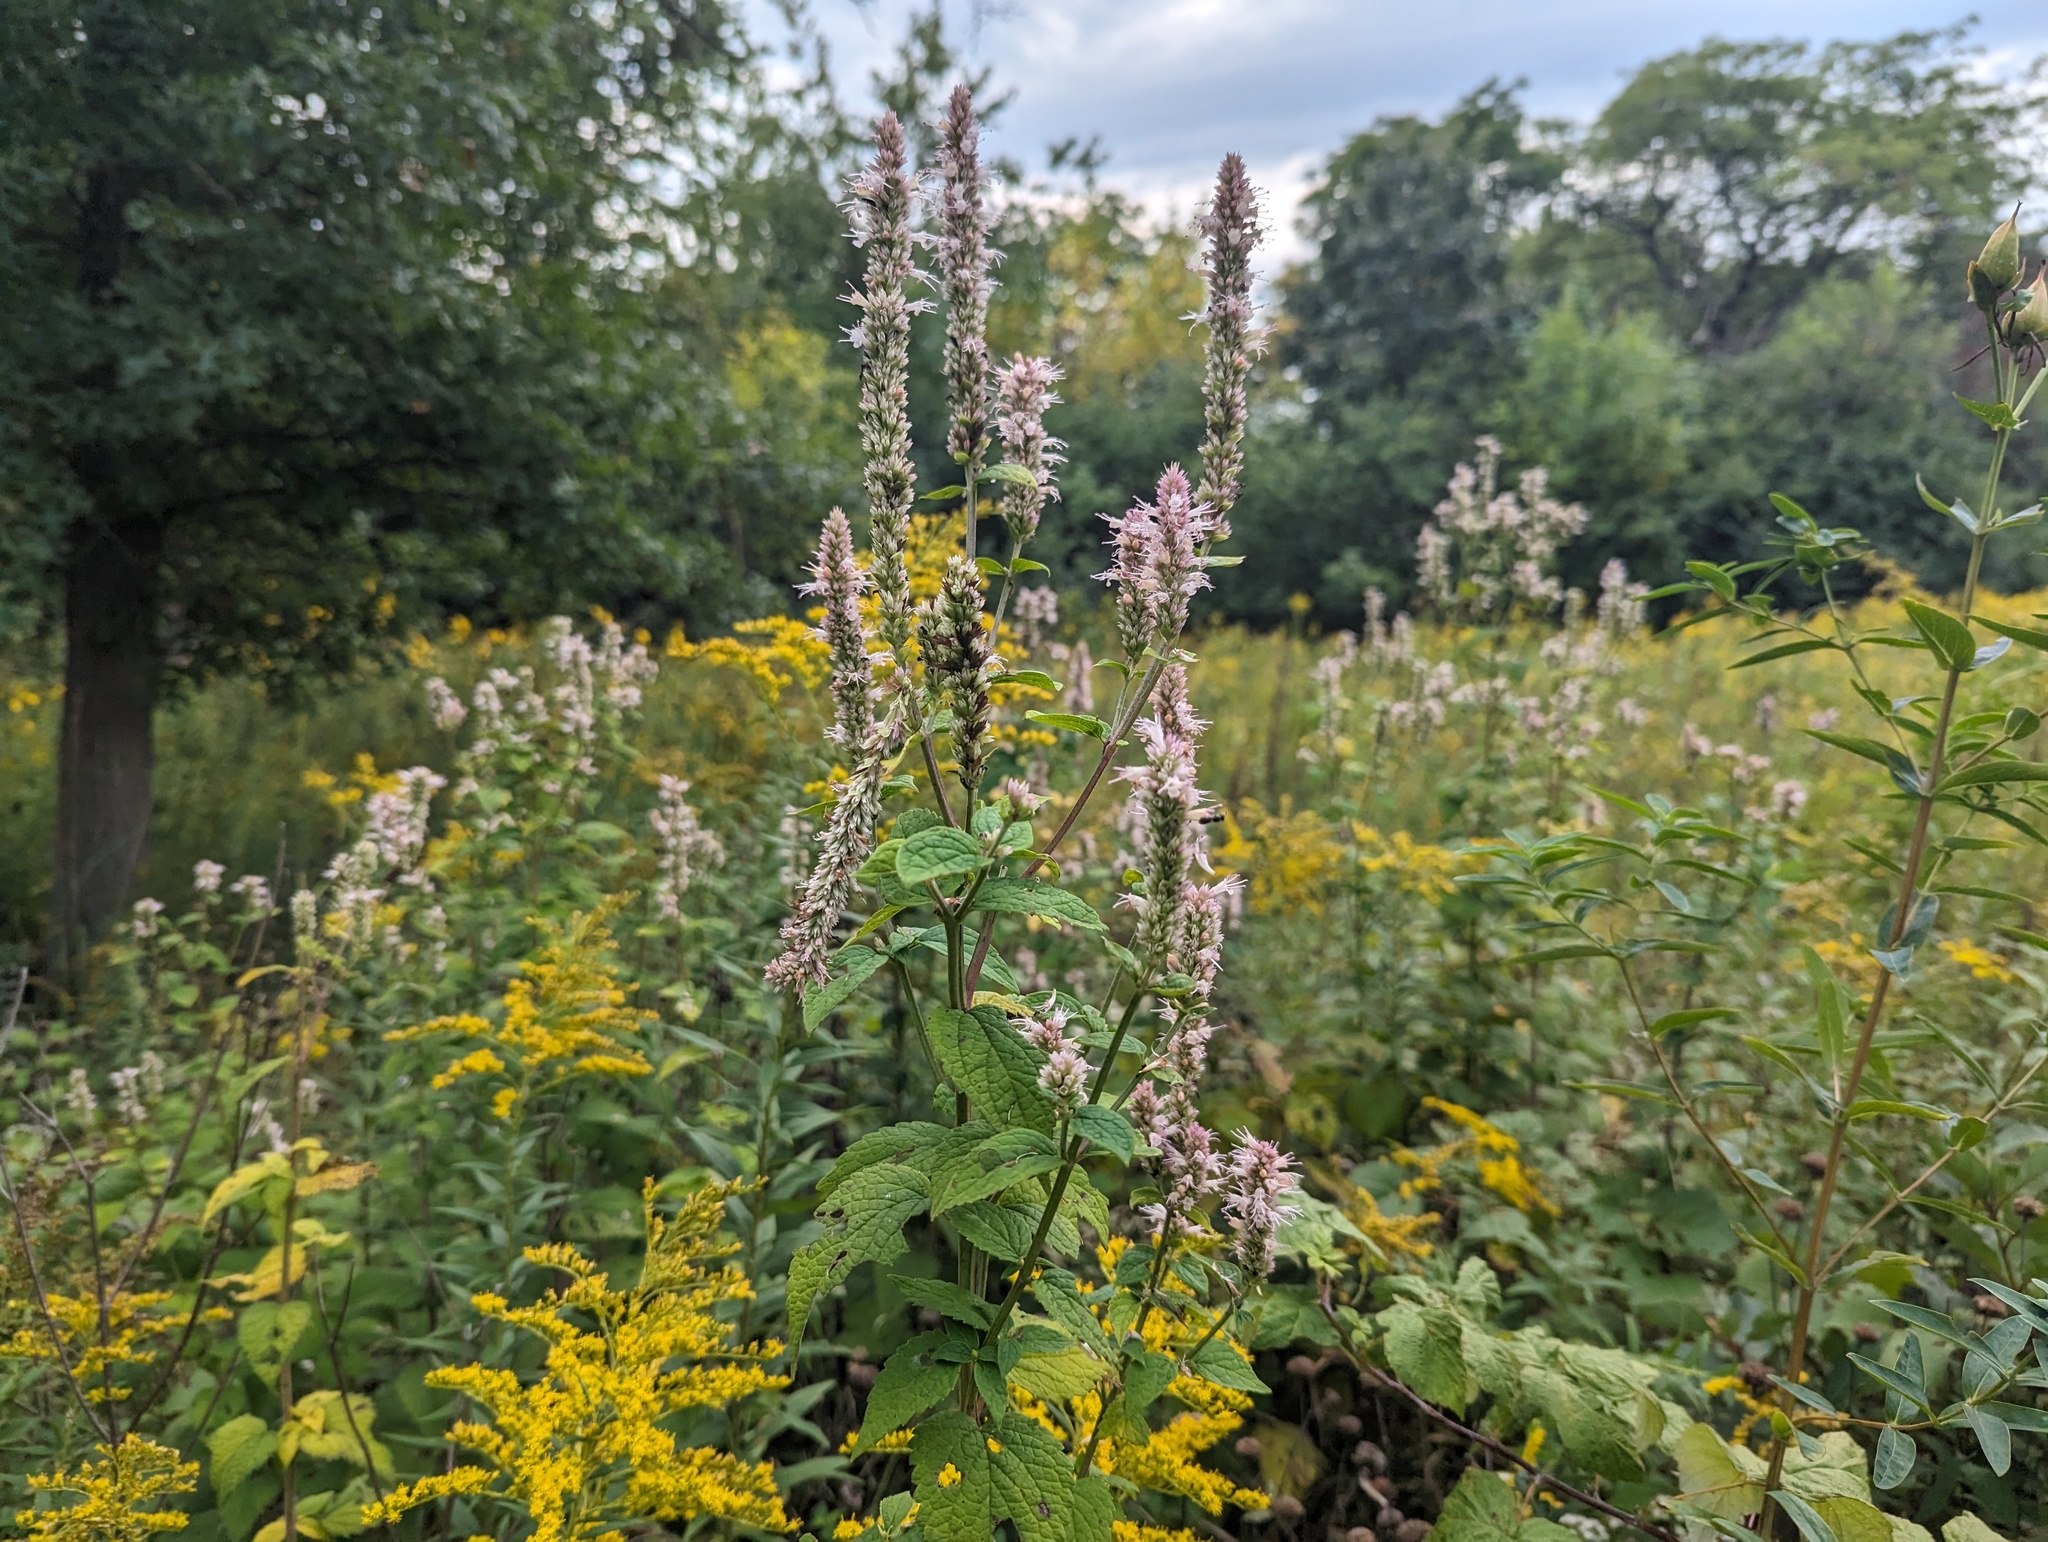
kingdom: Plantae
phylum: Tracheophyta
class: Magnoliopsida
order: Lamiales
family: Lamiaceae
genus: Agastache
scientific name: Agastache scrophulariifolia
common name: Figwort giant hyssop
